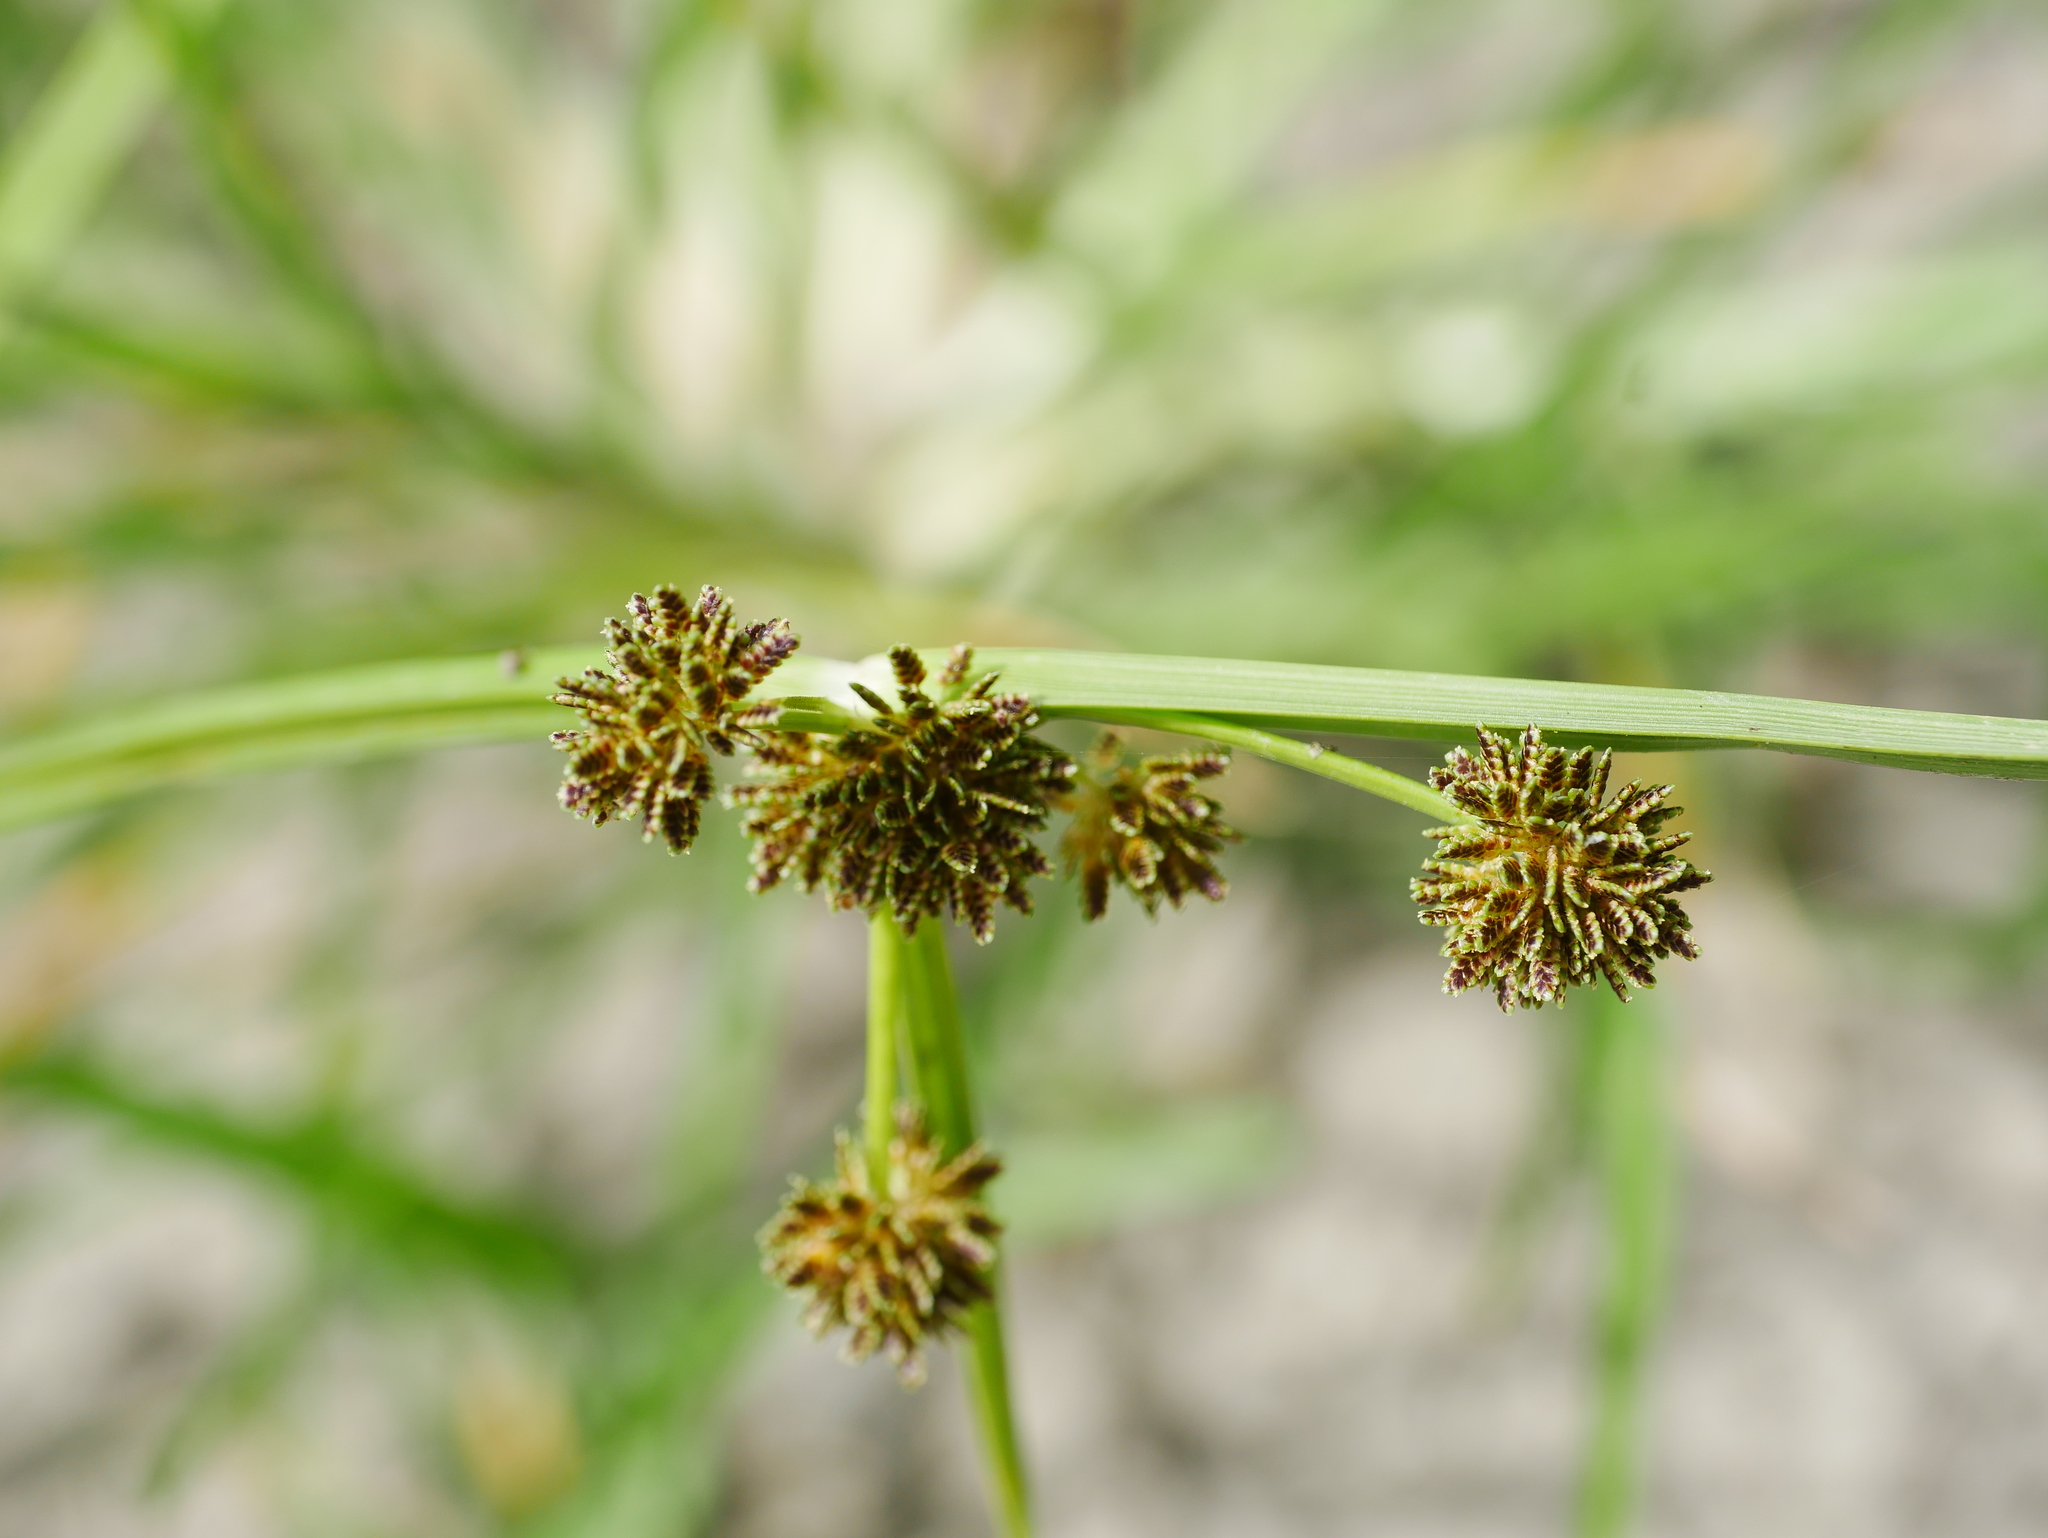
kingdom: Plantae
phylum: Tracheophyta
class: Liliopsida
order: Poales
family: Cyperaceae
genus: Cyperus
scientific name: Cyperus difformis
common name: Variable flatsedge
